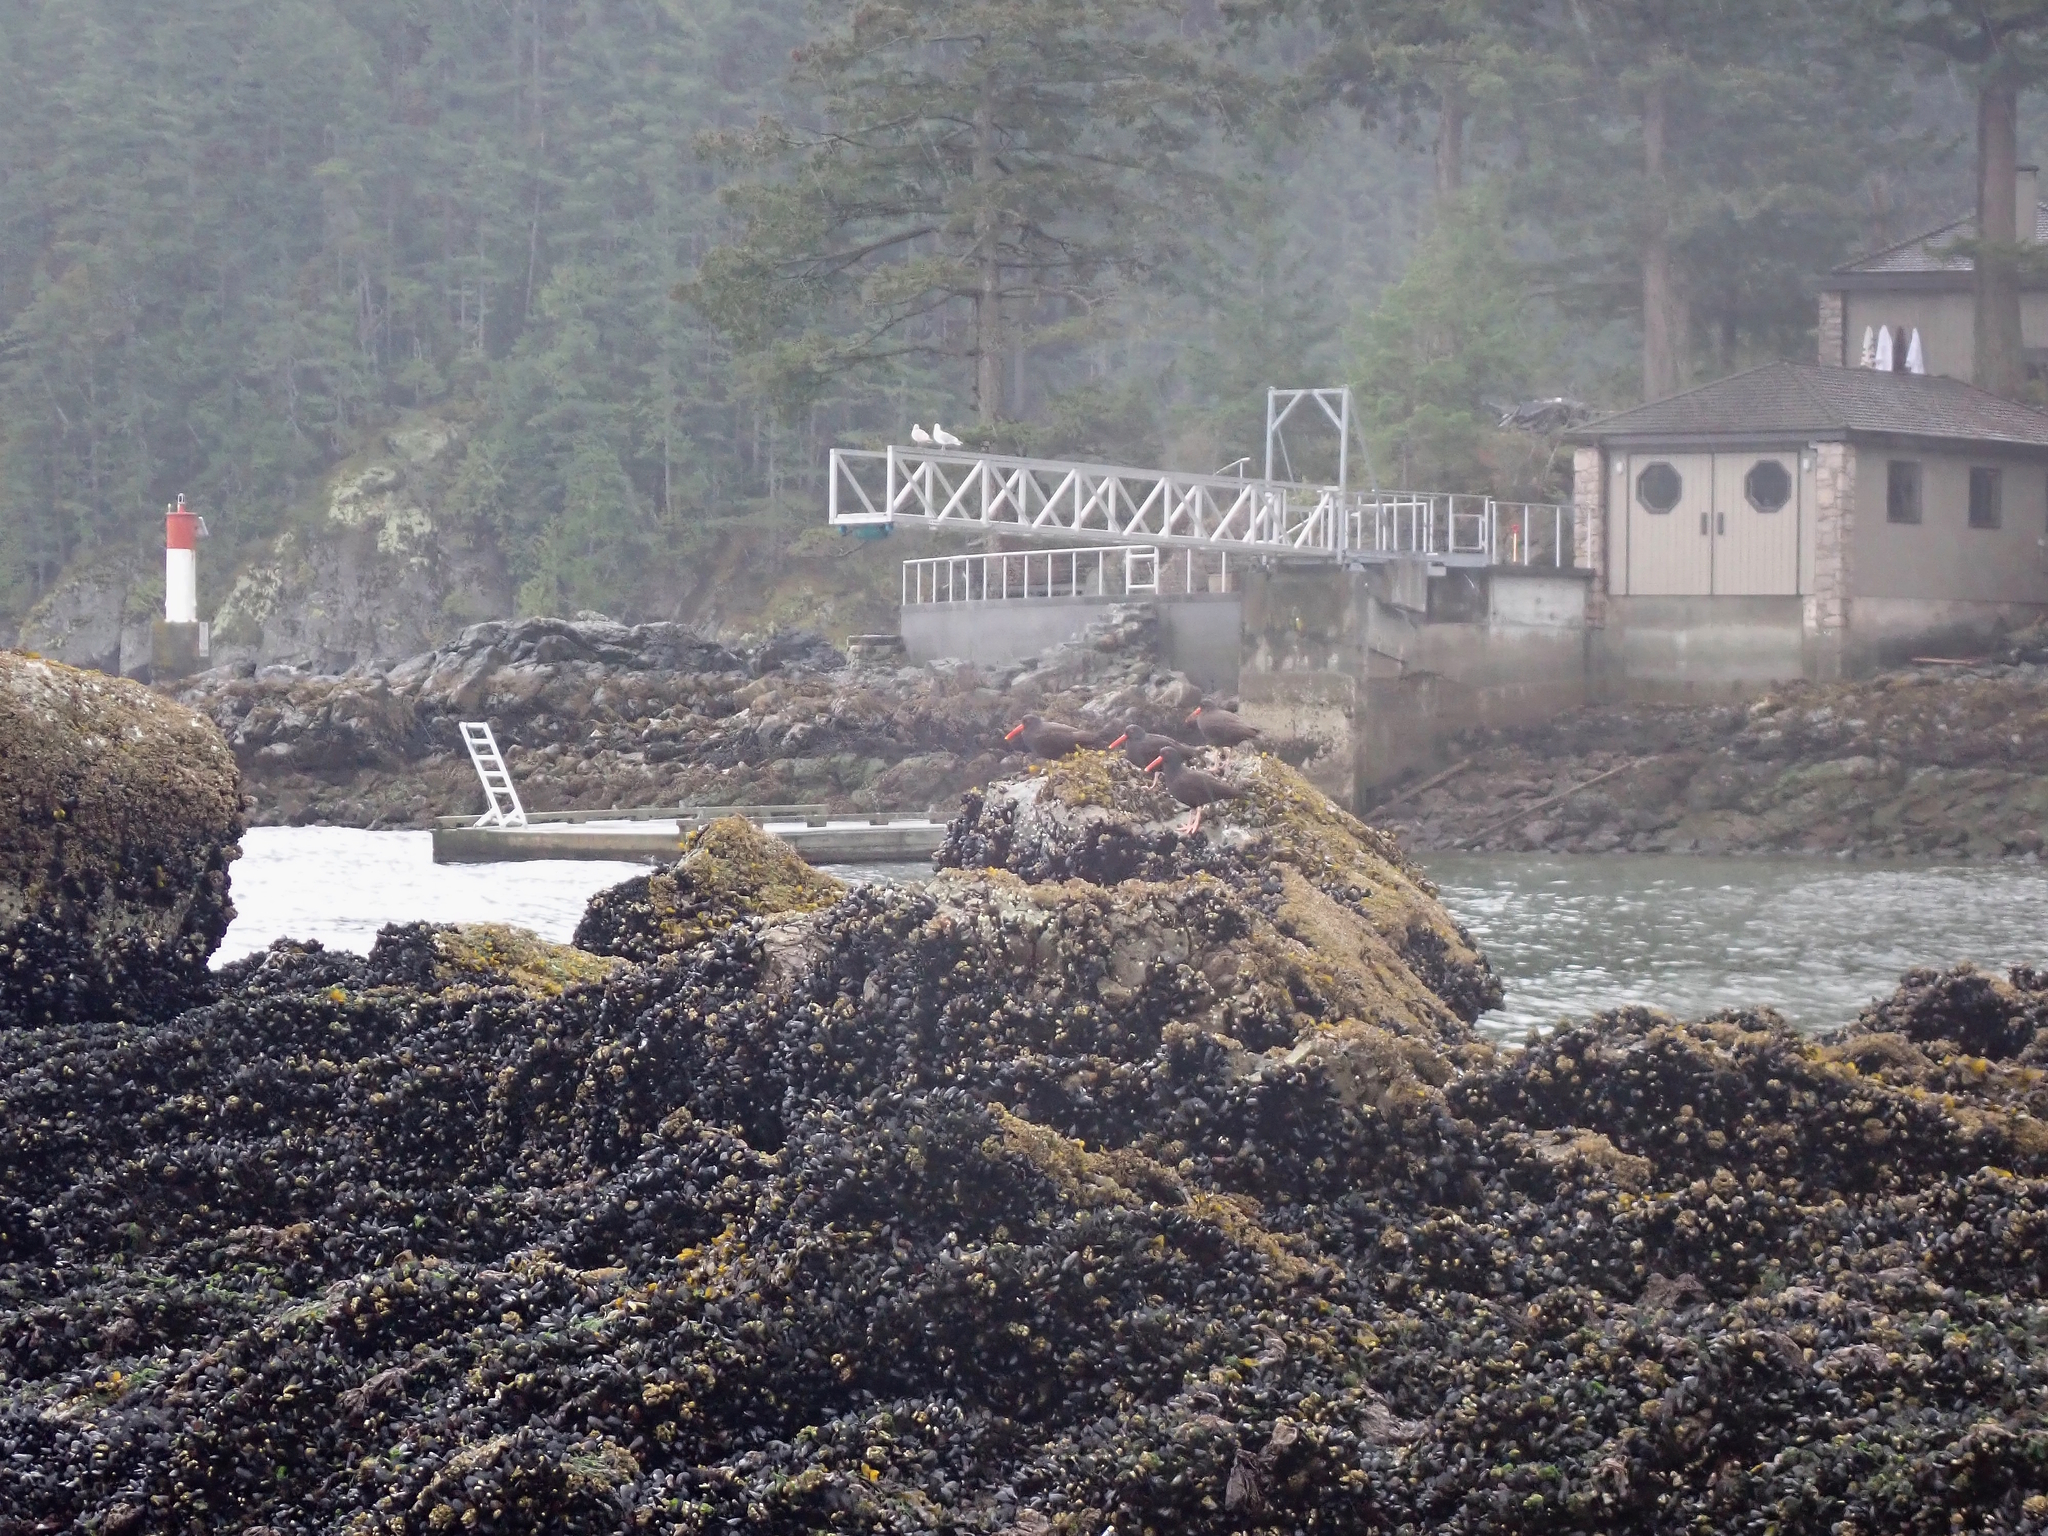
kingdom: Animalia
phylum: Chordata
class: Aves
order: Charadriiformes
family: Haematopodidae
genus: Haematopus
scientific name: Haematopus bachmani
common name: Black oystercatcher
